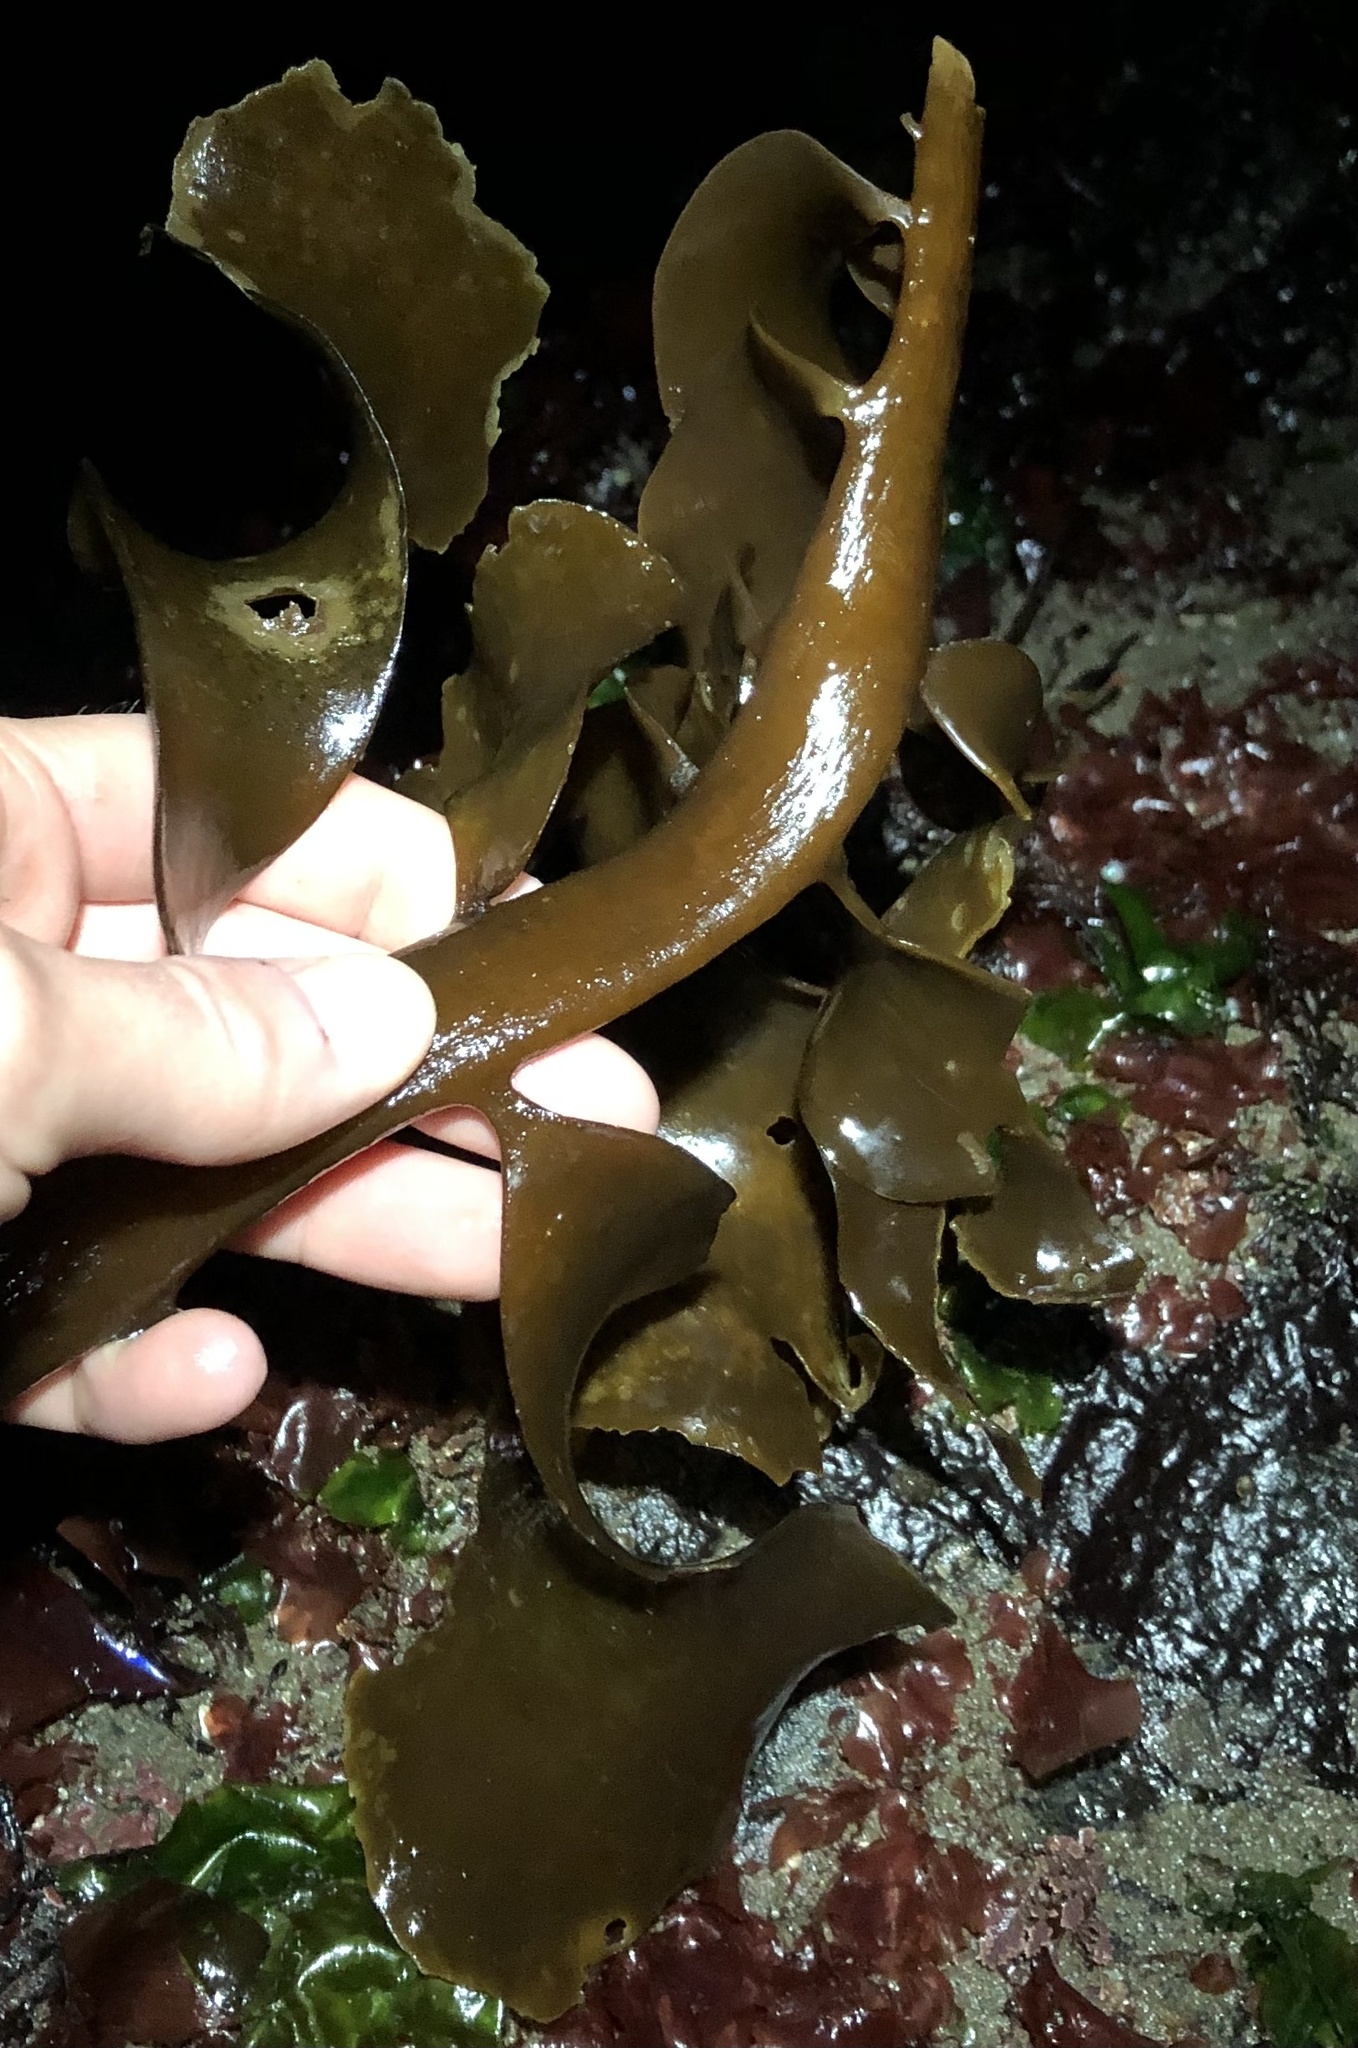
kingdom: Chromista
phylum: Ochrophyta
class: Phaeophyceae
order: Laminariales
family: Alariaceae
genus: Pterygophora
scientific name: Pterygophora californica
